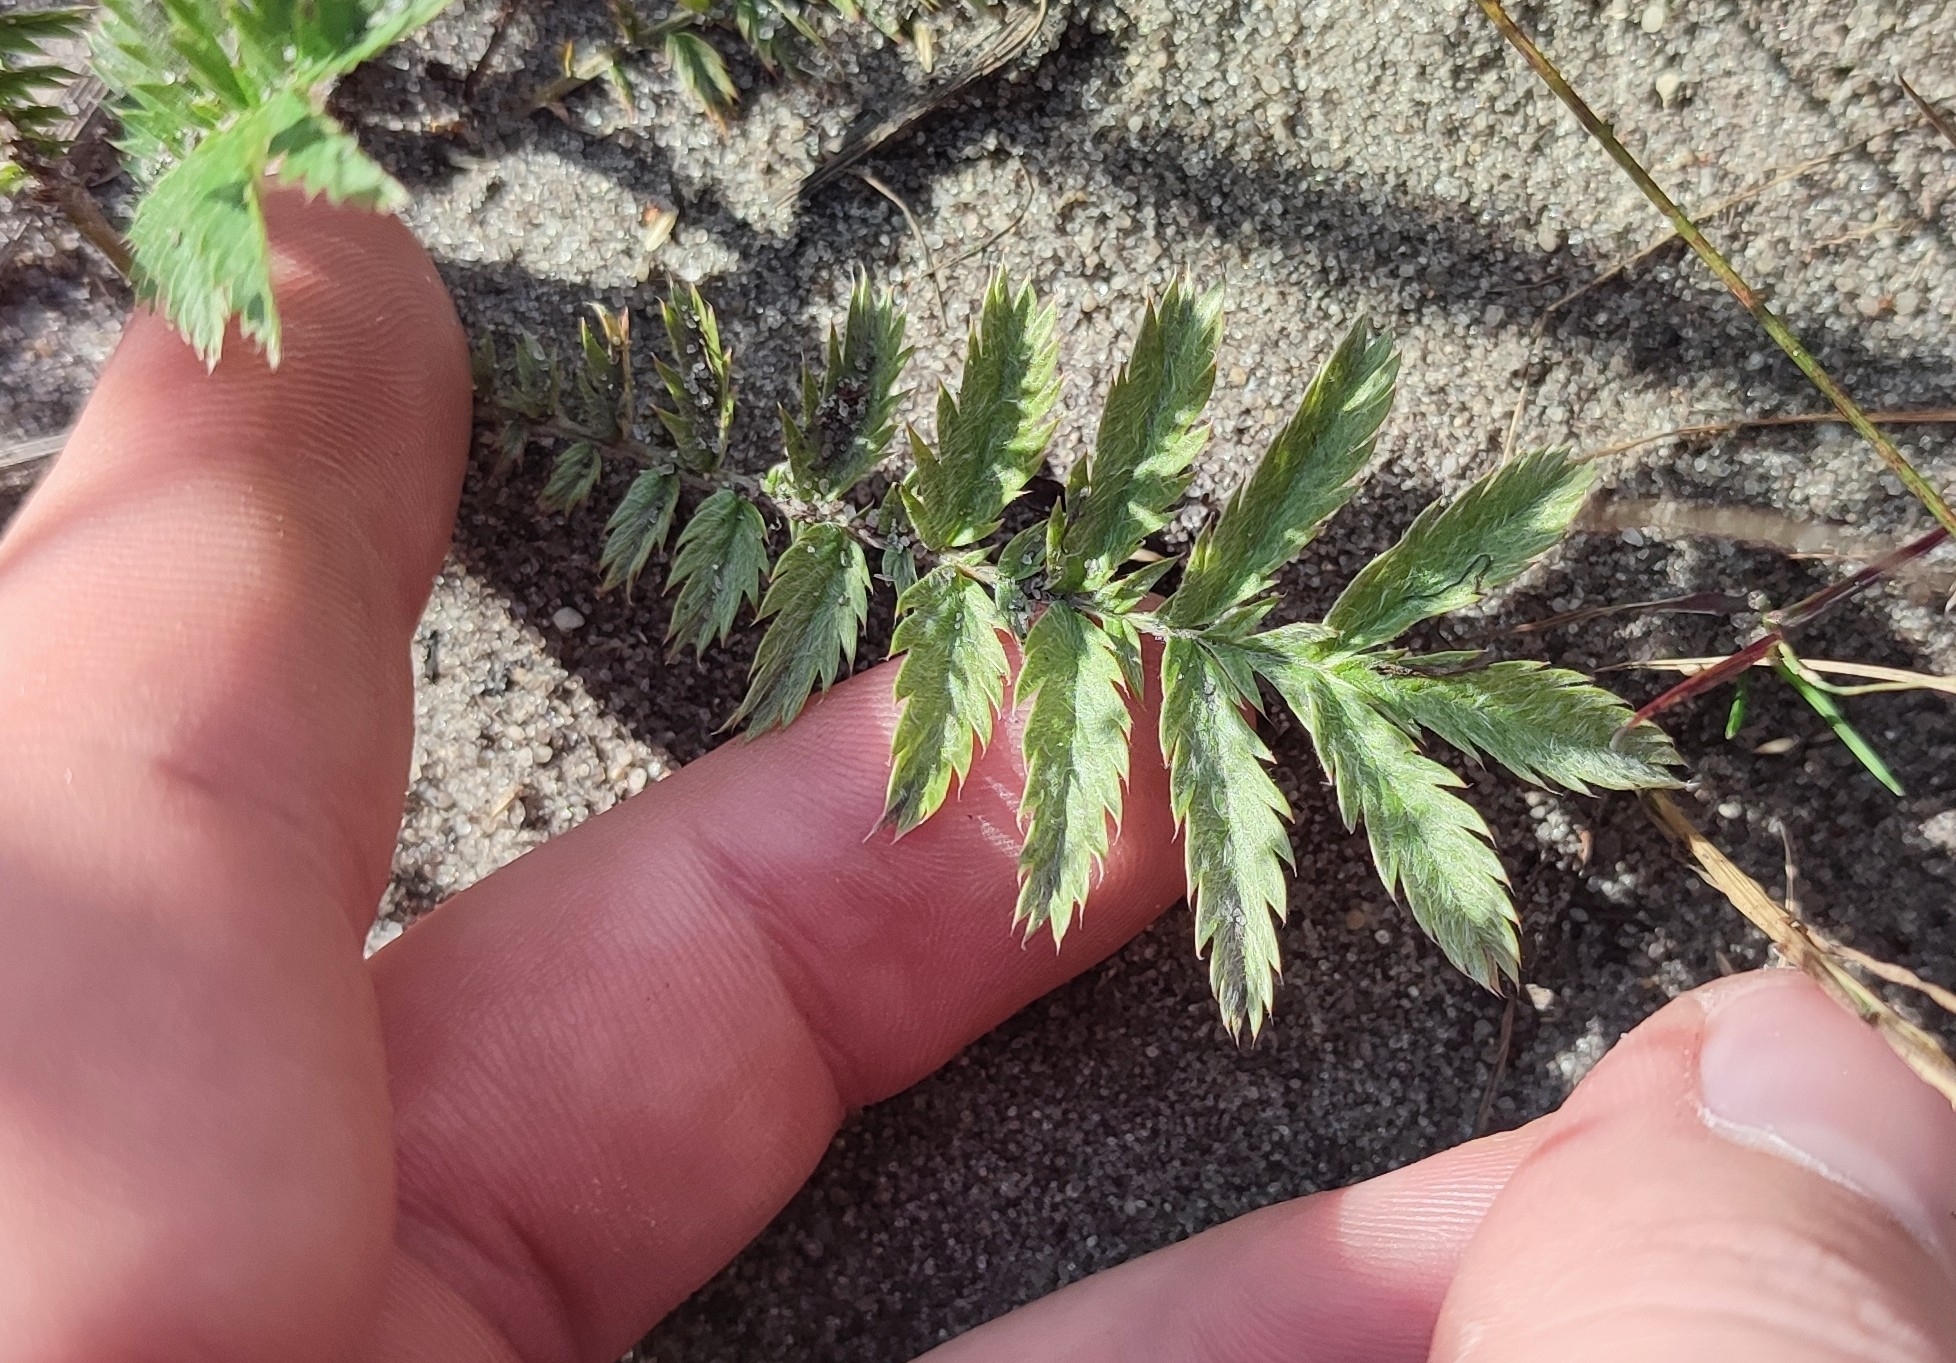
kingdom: Plantae
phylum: Tracheophyta
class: Magnoliopsida
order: Rosales
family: Rosaceae
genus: Argentina
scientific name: Argentina anserina
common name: Common silverweed
